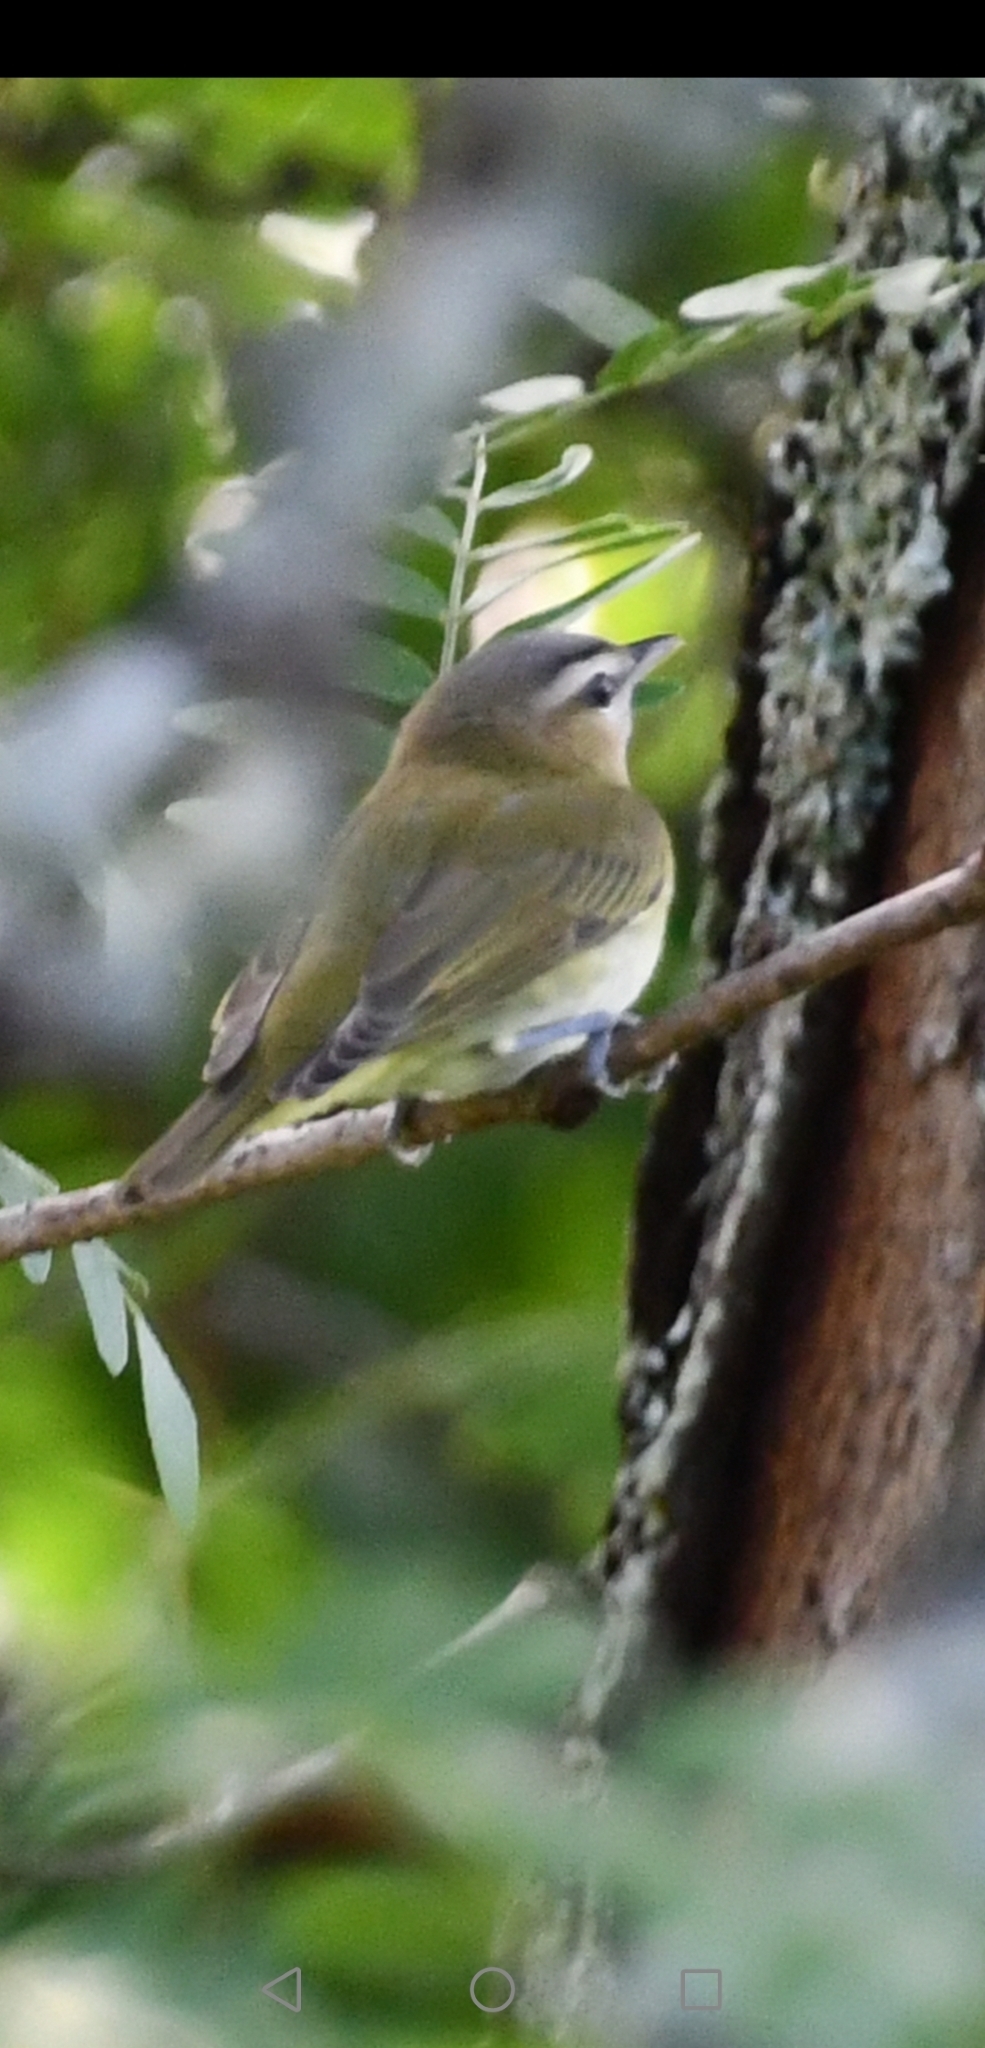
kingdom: Animalia
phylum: Chordata
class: Aves
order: Passeriformes
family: Vireonidae
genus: Vireo
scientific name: Vireo olivaceus
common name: Red-eyed vireo
